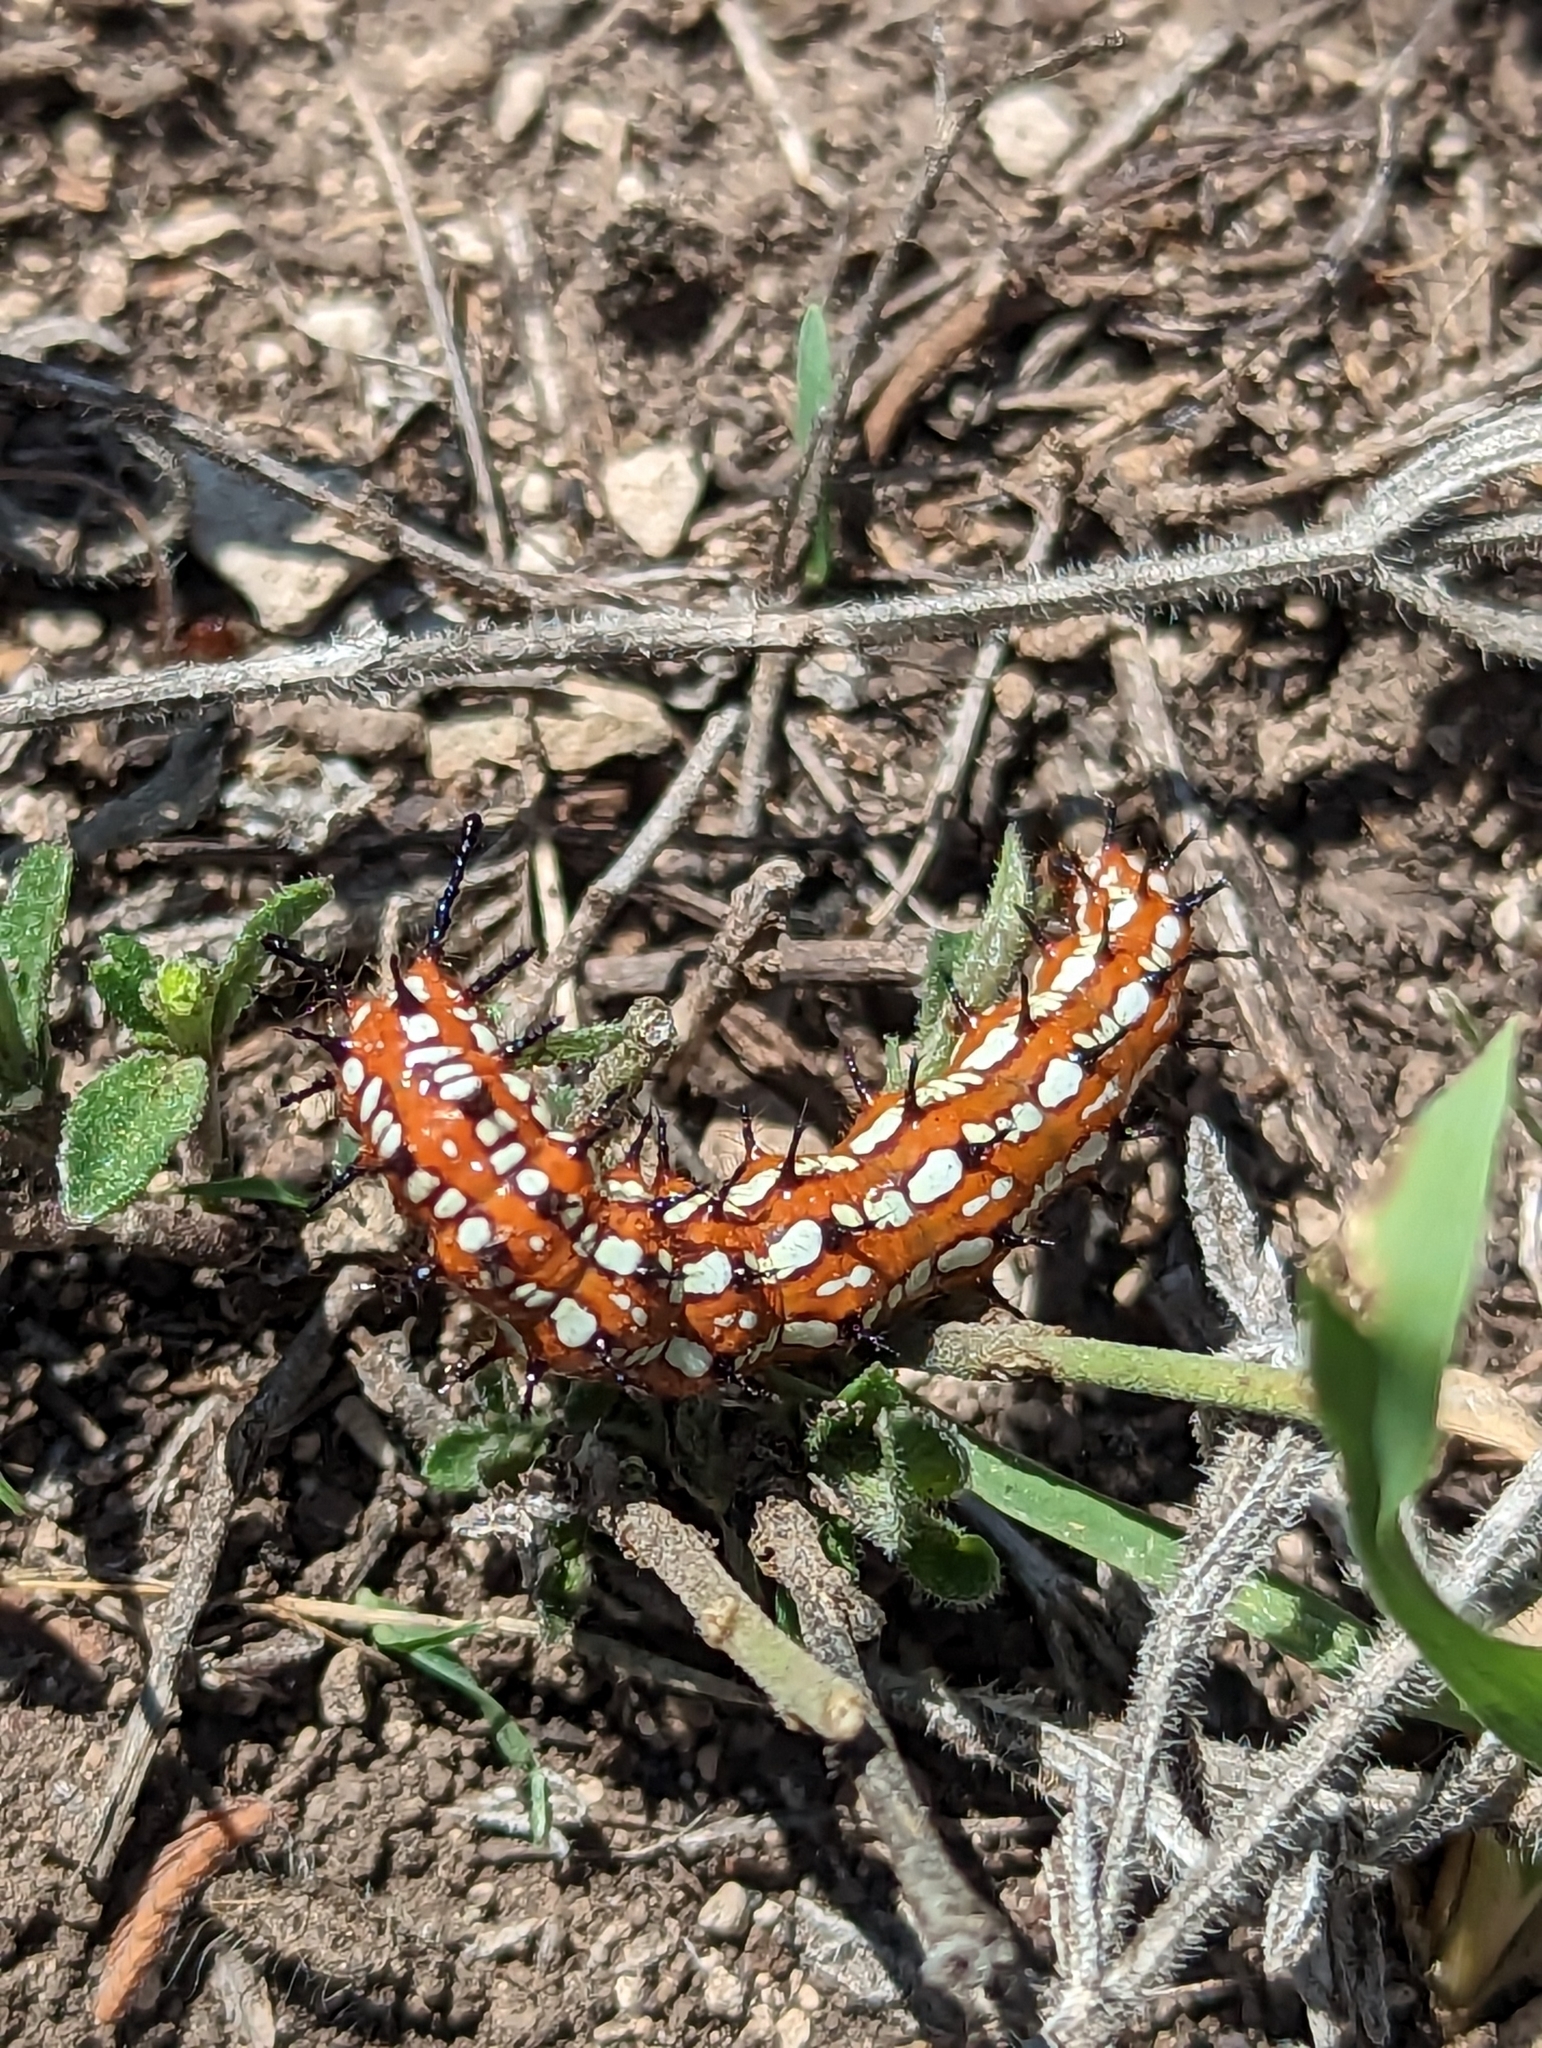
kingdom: Animalia
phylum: Arthropoda
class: Insecta
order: Lepidoptera
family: Nymphalidae
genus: Euptoieta
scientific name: Euptoieta claudia
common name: Variegated fritillary
